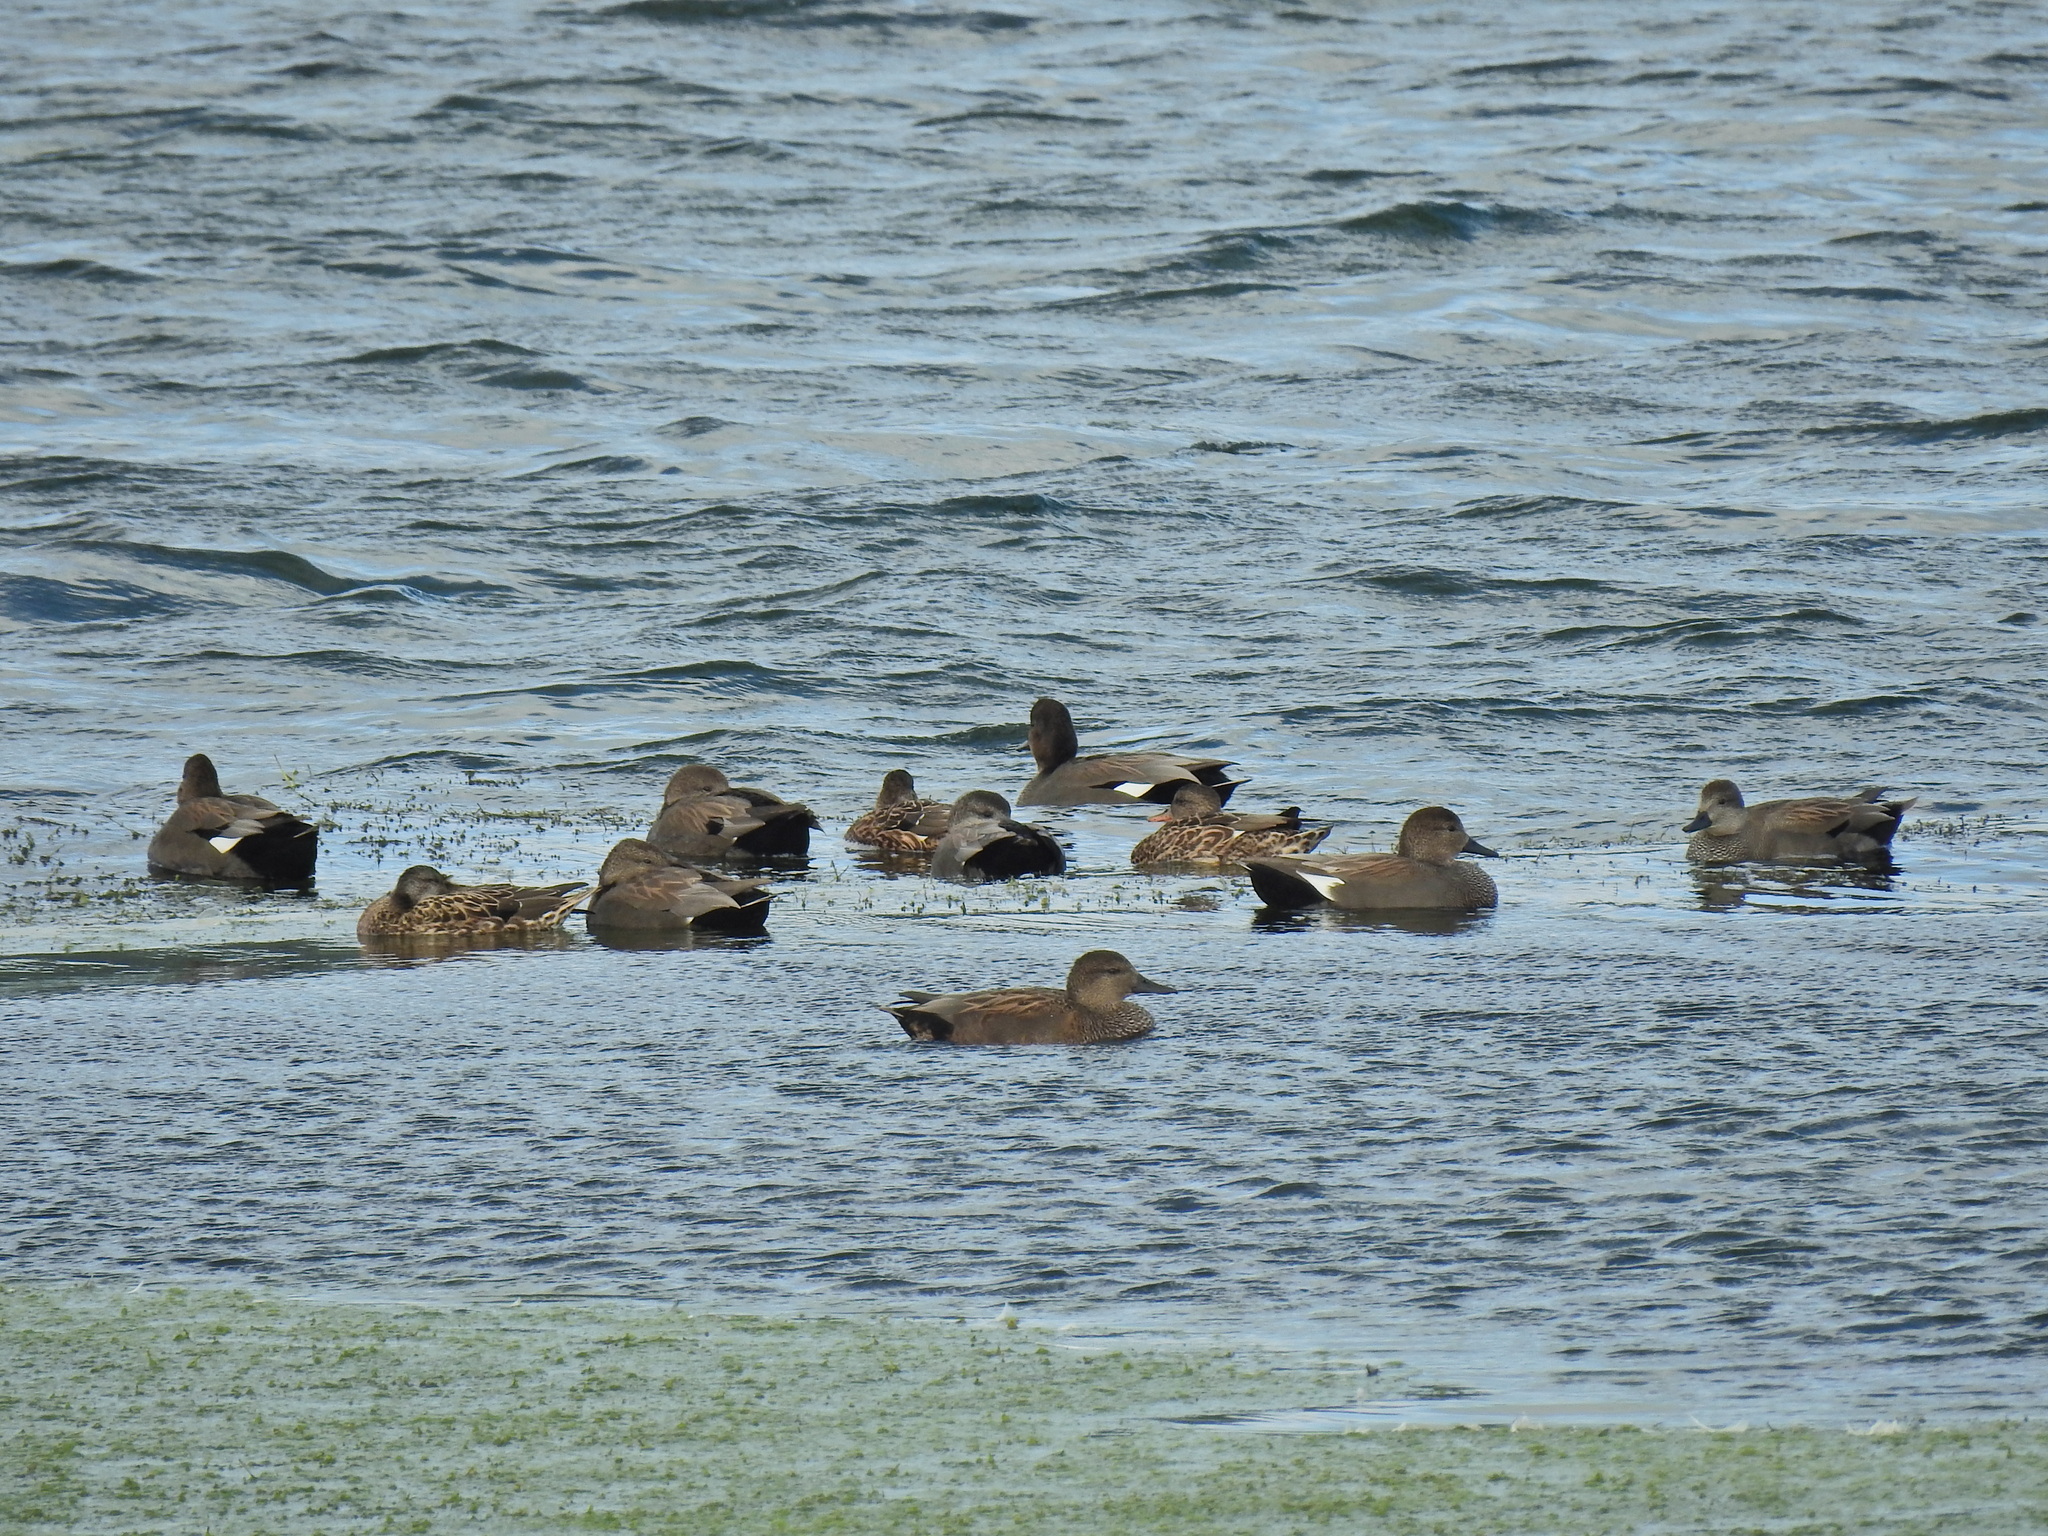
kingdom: Animalia
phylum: Chordata
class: Aves
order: Anseriformes
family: Anatidae
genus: Mareca
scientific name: Mareca strepera
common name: Gadwall
